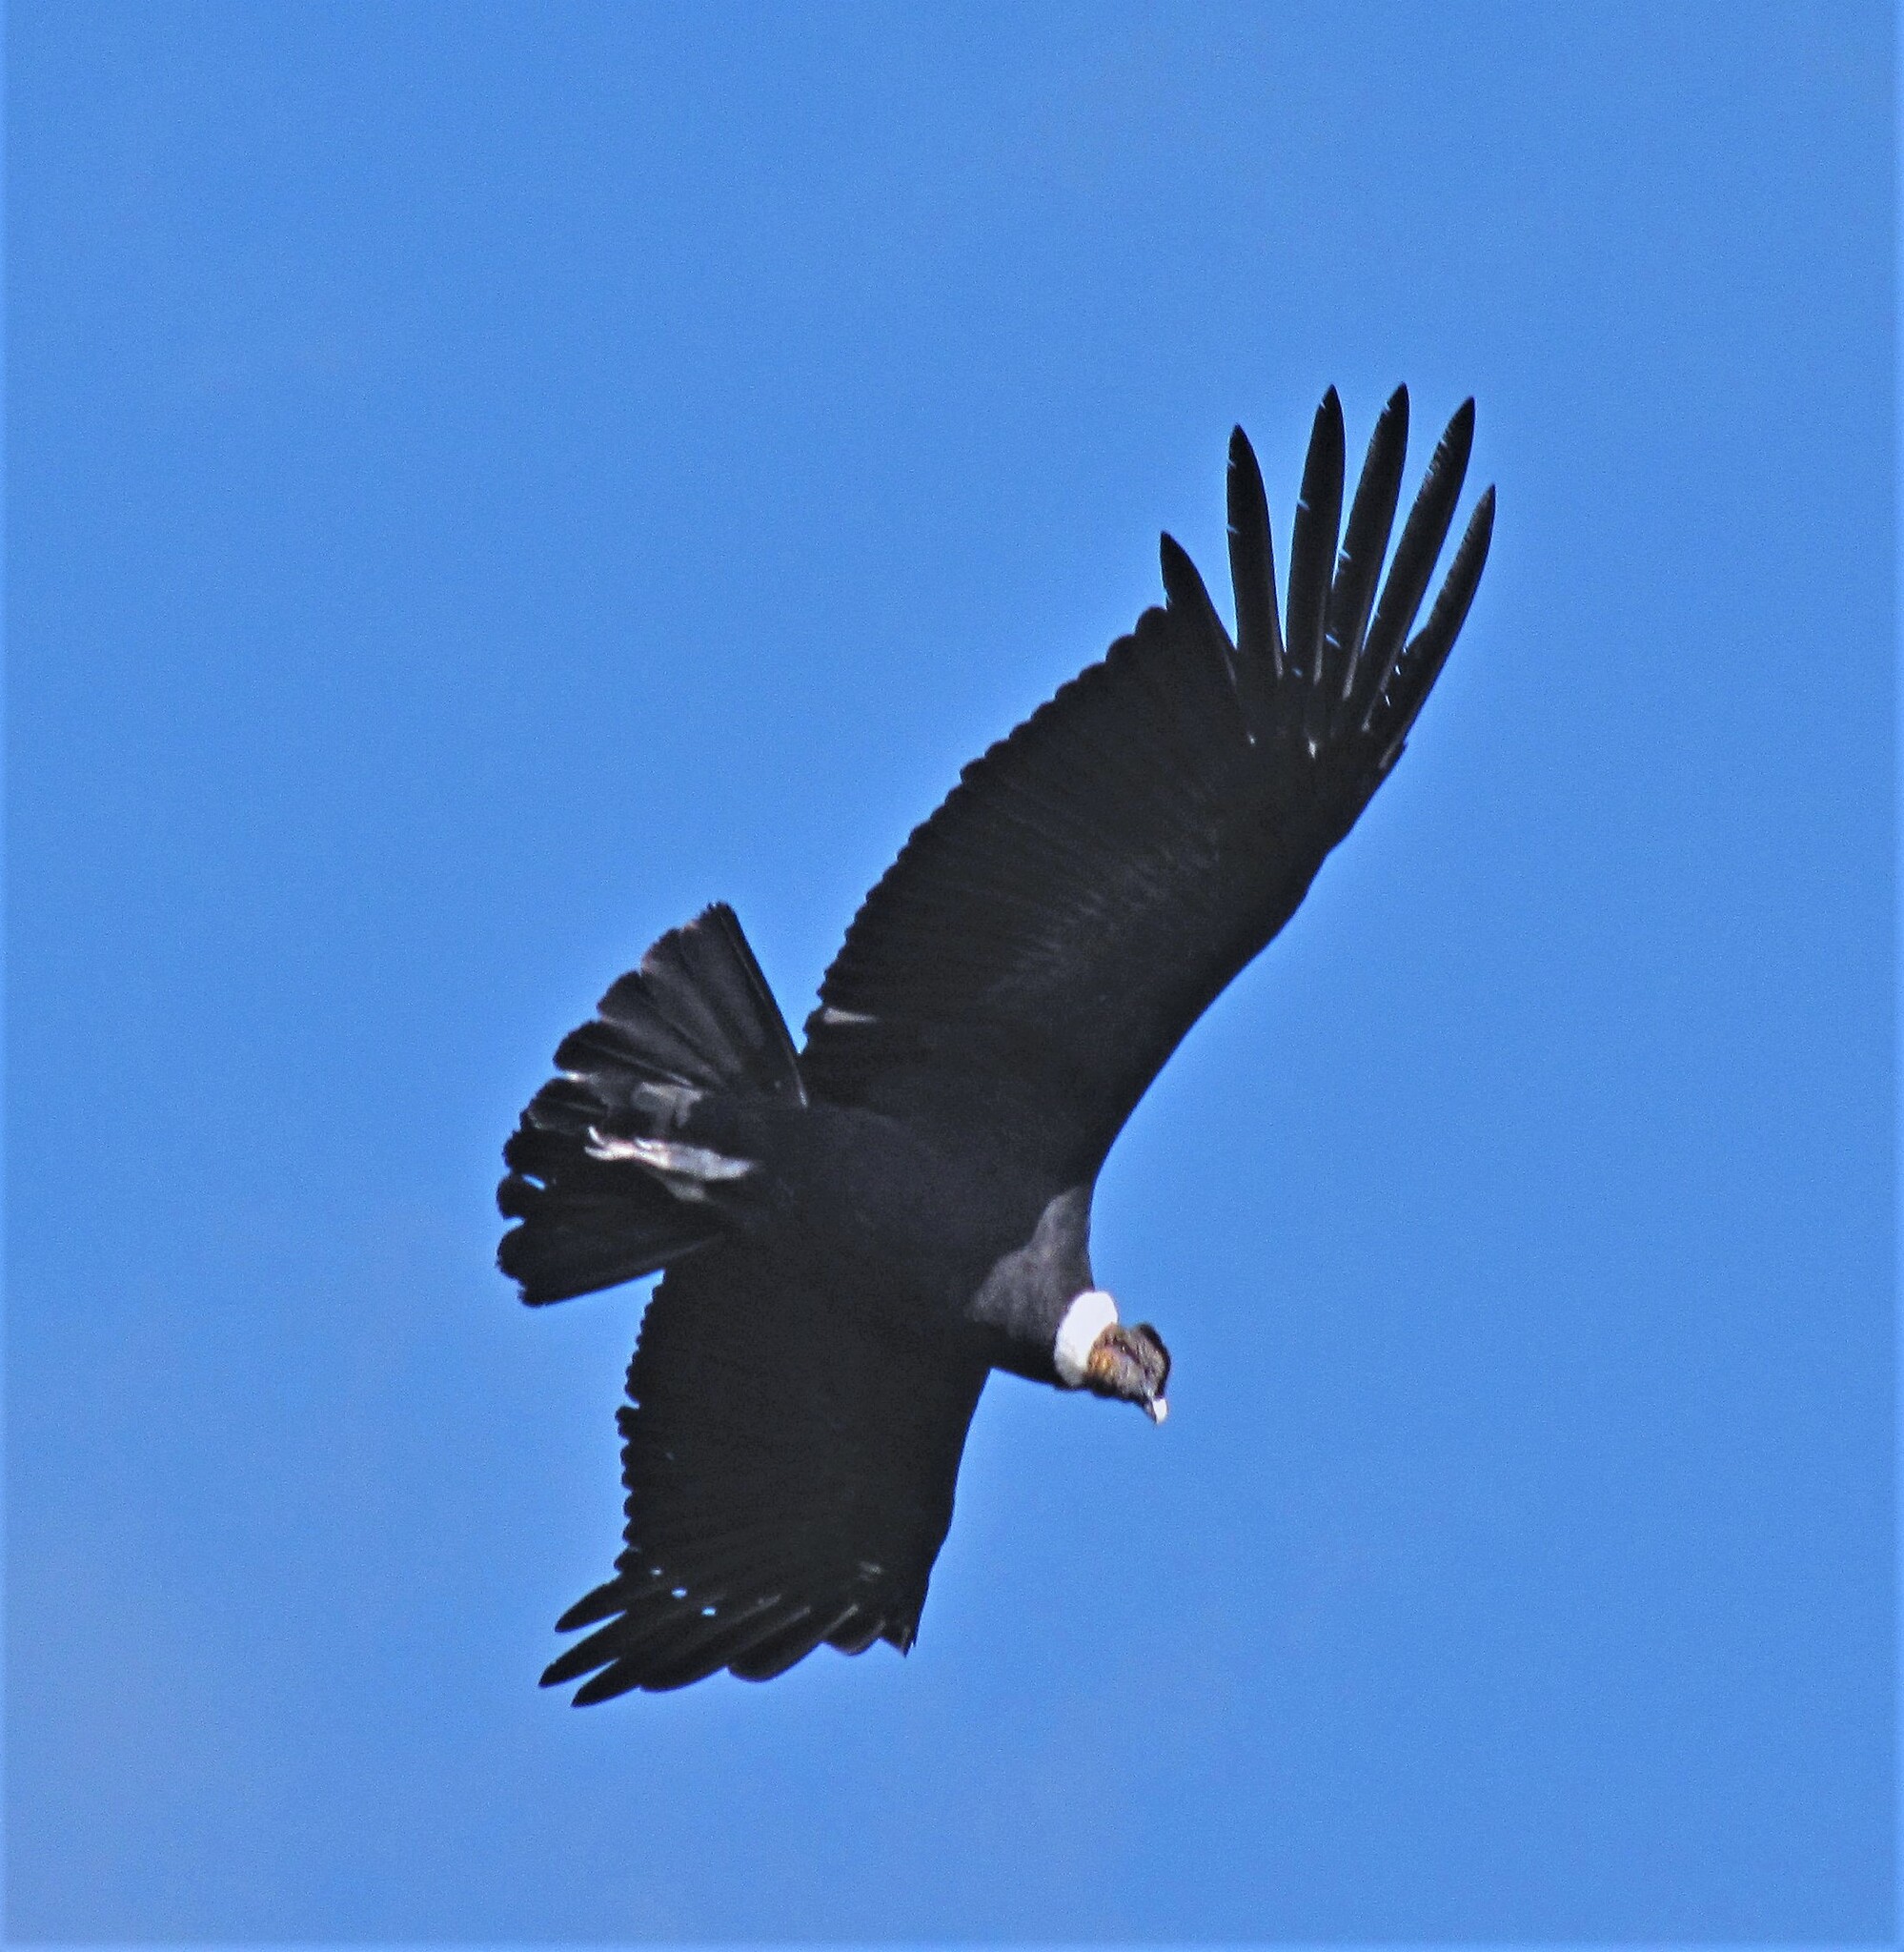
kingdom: Animalia
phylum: Chordata
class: Aves
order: Accipitriformes
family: Cathartidae
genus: Vultur
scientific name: Vultur gryphus
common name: Andean condor
